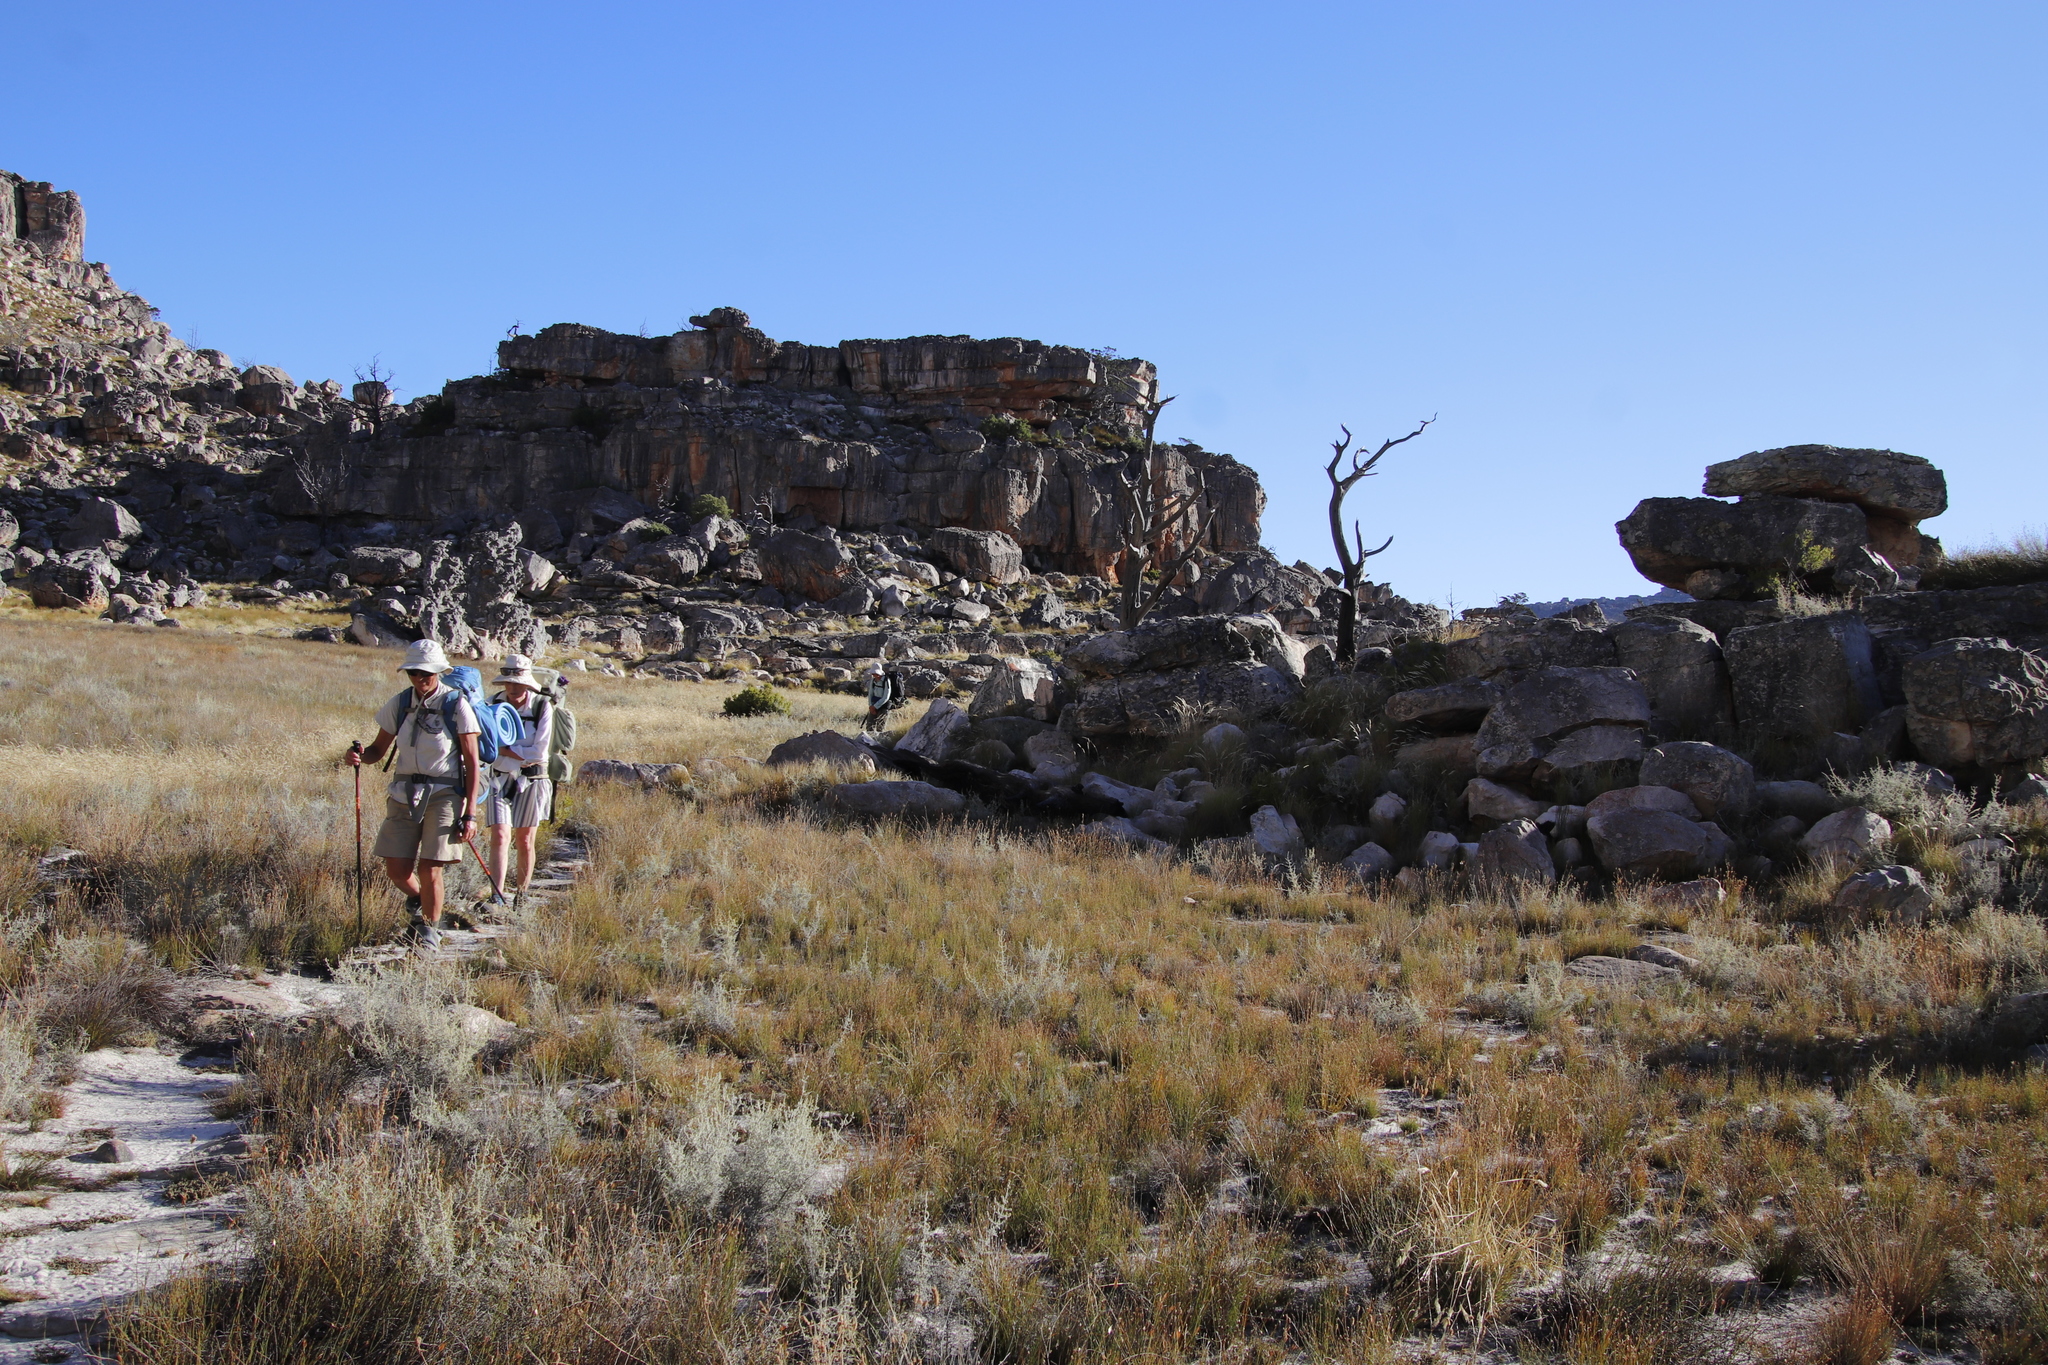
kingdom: Plantae
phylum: Tracheophyta
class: Pinopsida
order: Pinales
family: Cupressaceae
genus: Widdringtonia
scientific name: Widdringtonia nodiflora
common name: Cape cypress
